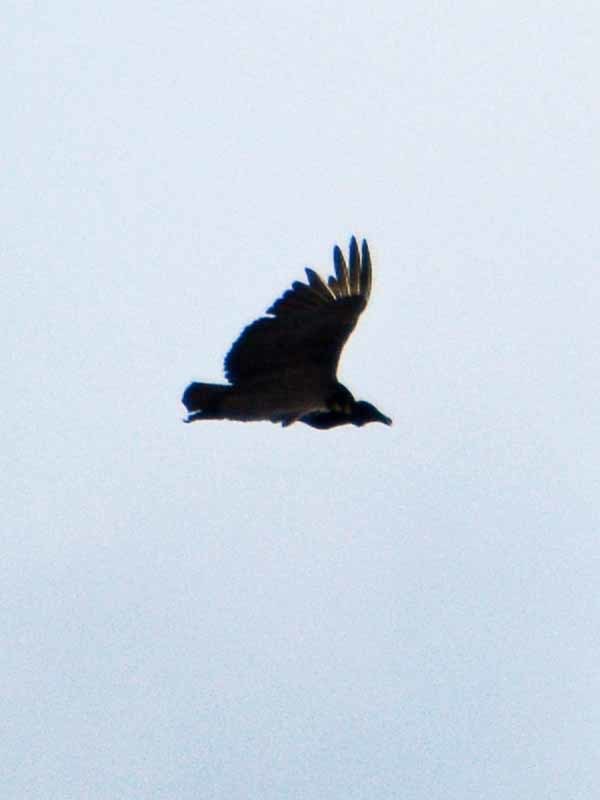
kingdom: Animalia
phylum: Chordata
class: Aves
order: Accipitriformes
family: Cathartidae
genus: Coragyps
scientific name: Coragyps atratus
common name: Black vulture
